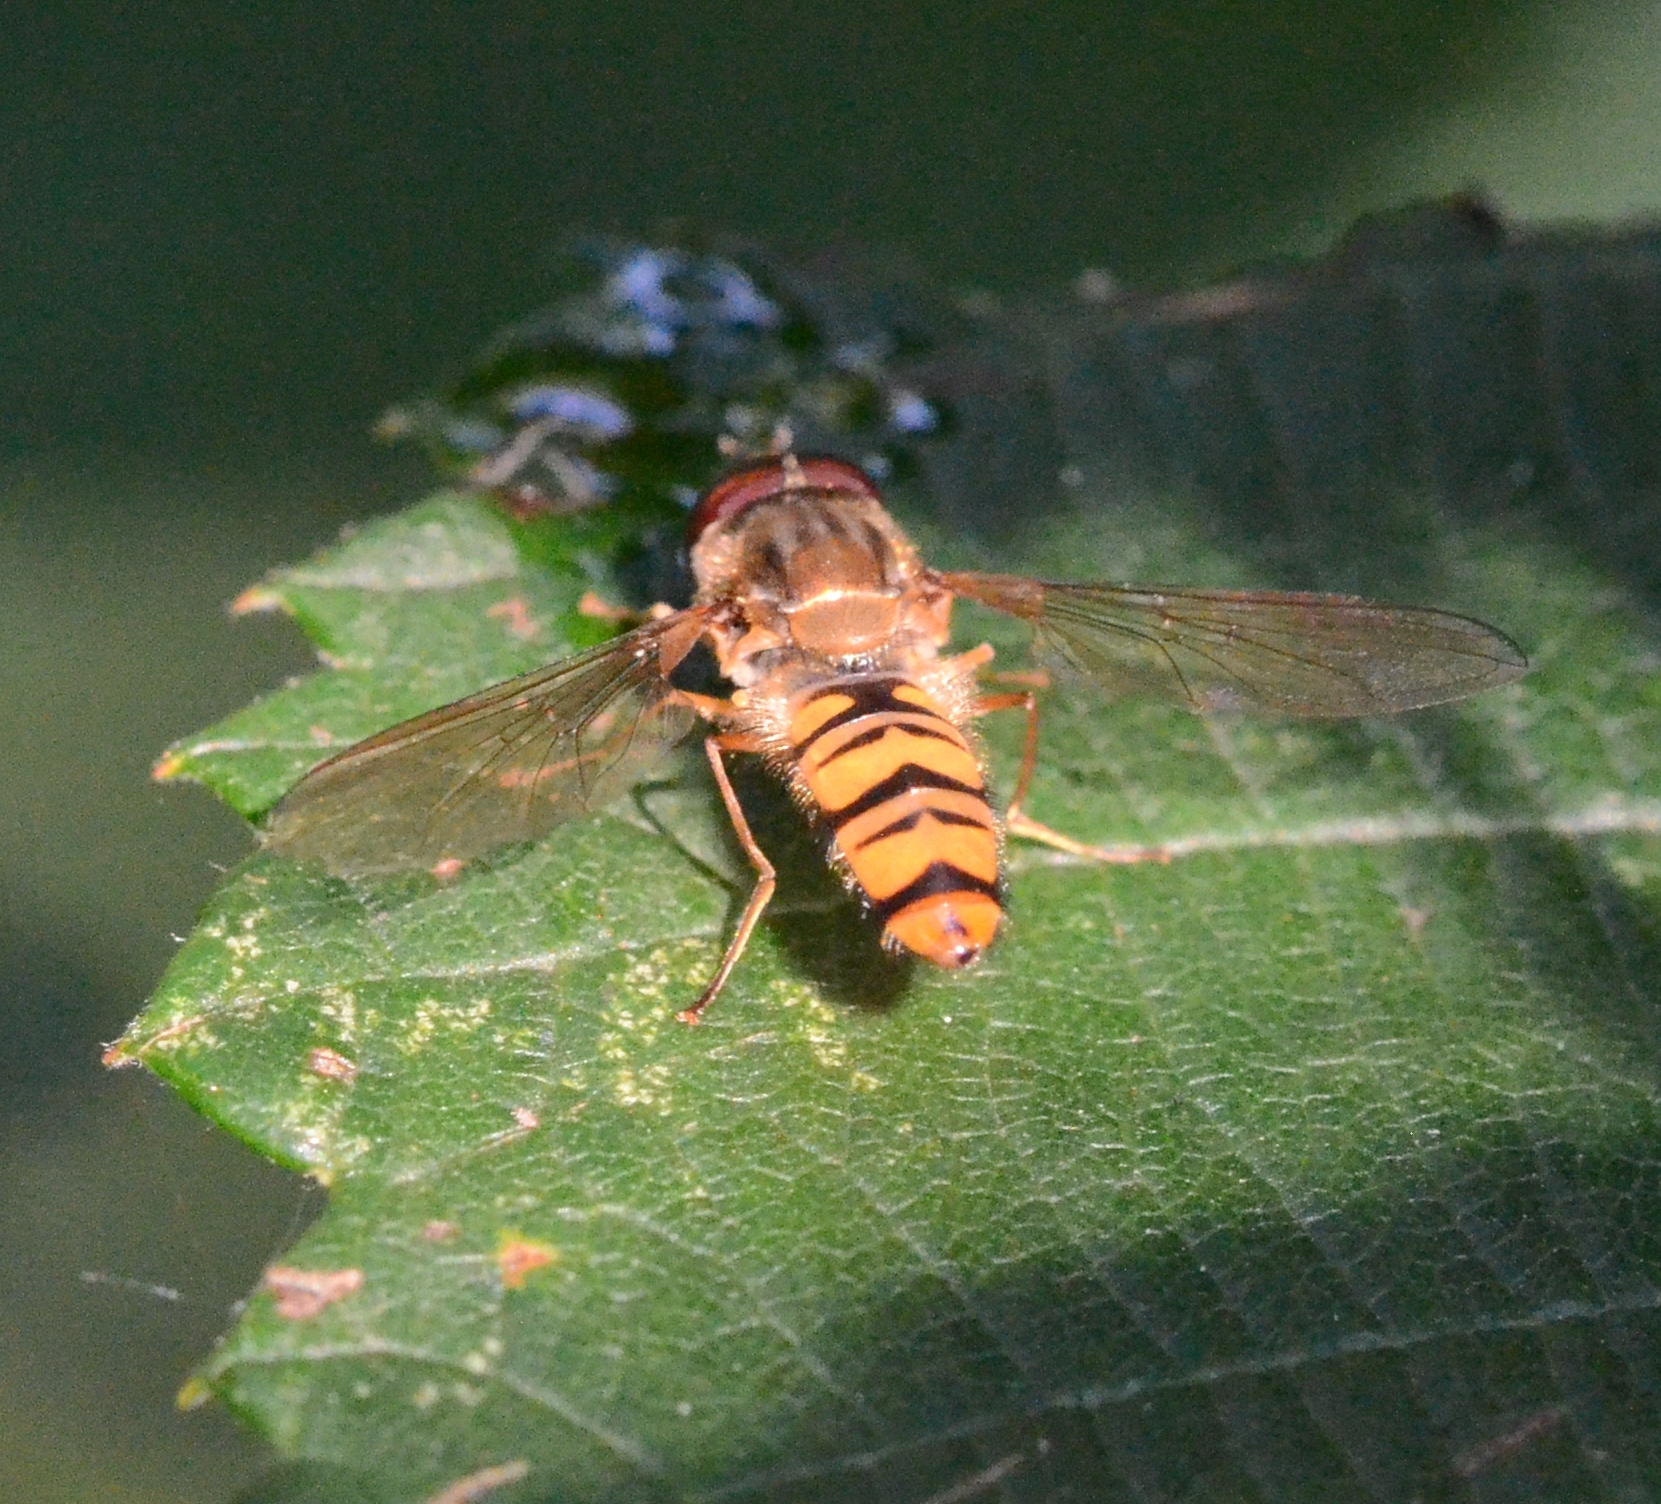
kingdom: Animalia
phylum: Arthropoda
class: Insecta
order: Diptera
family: Syrphidae
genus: Episyrphus
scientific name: Episyrphus balteatus
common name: Marmalade hoverfly
